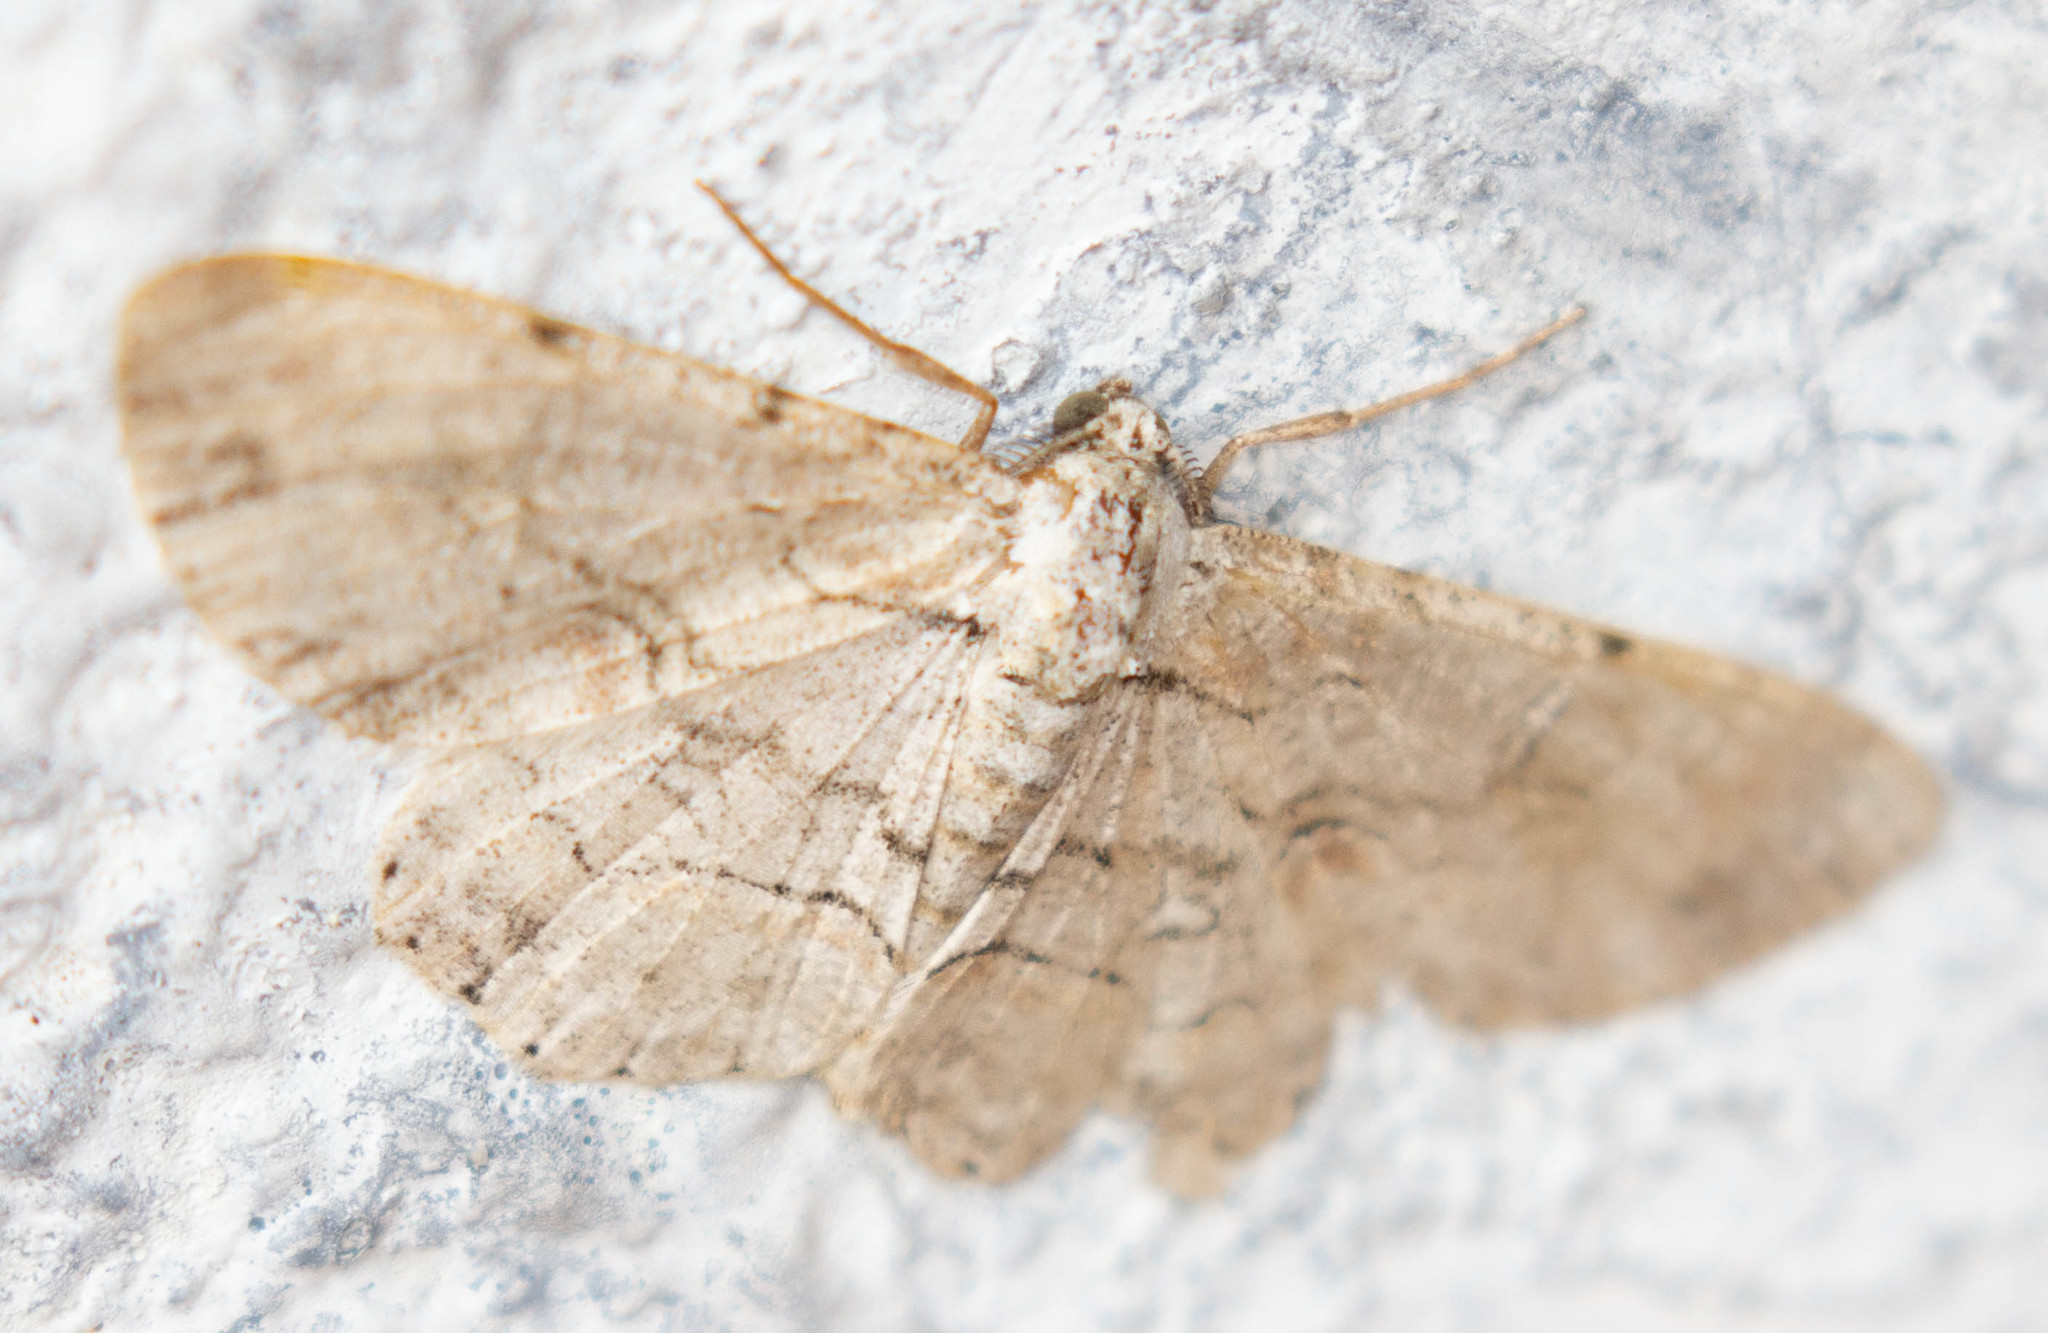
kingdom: Animalia
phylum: Arthropoda
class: Insecta
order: Lepidoptera
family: Geometridae
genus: Iridopsis
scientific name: Iridopsis defectaria
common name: Brown-shaded gray
